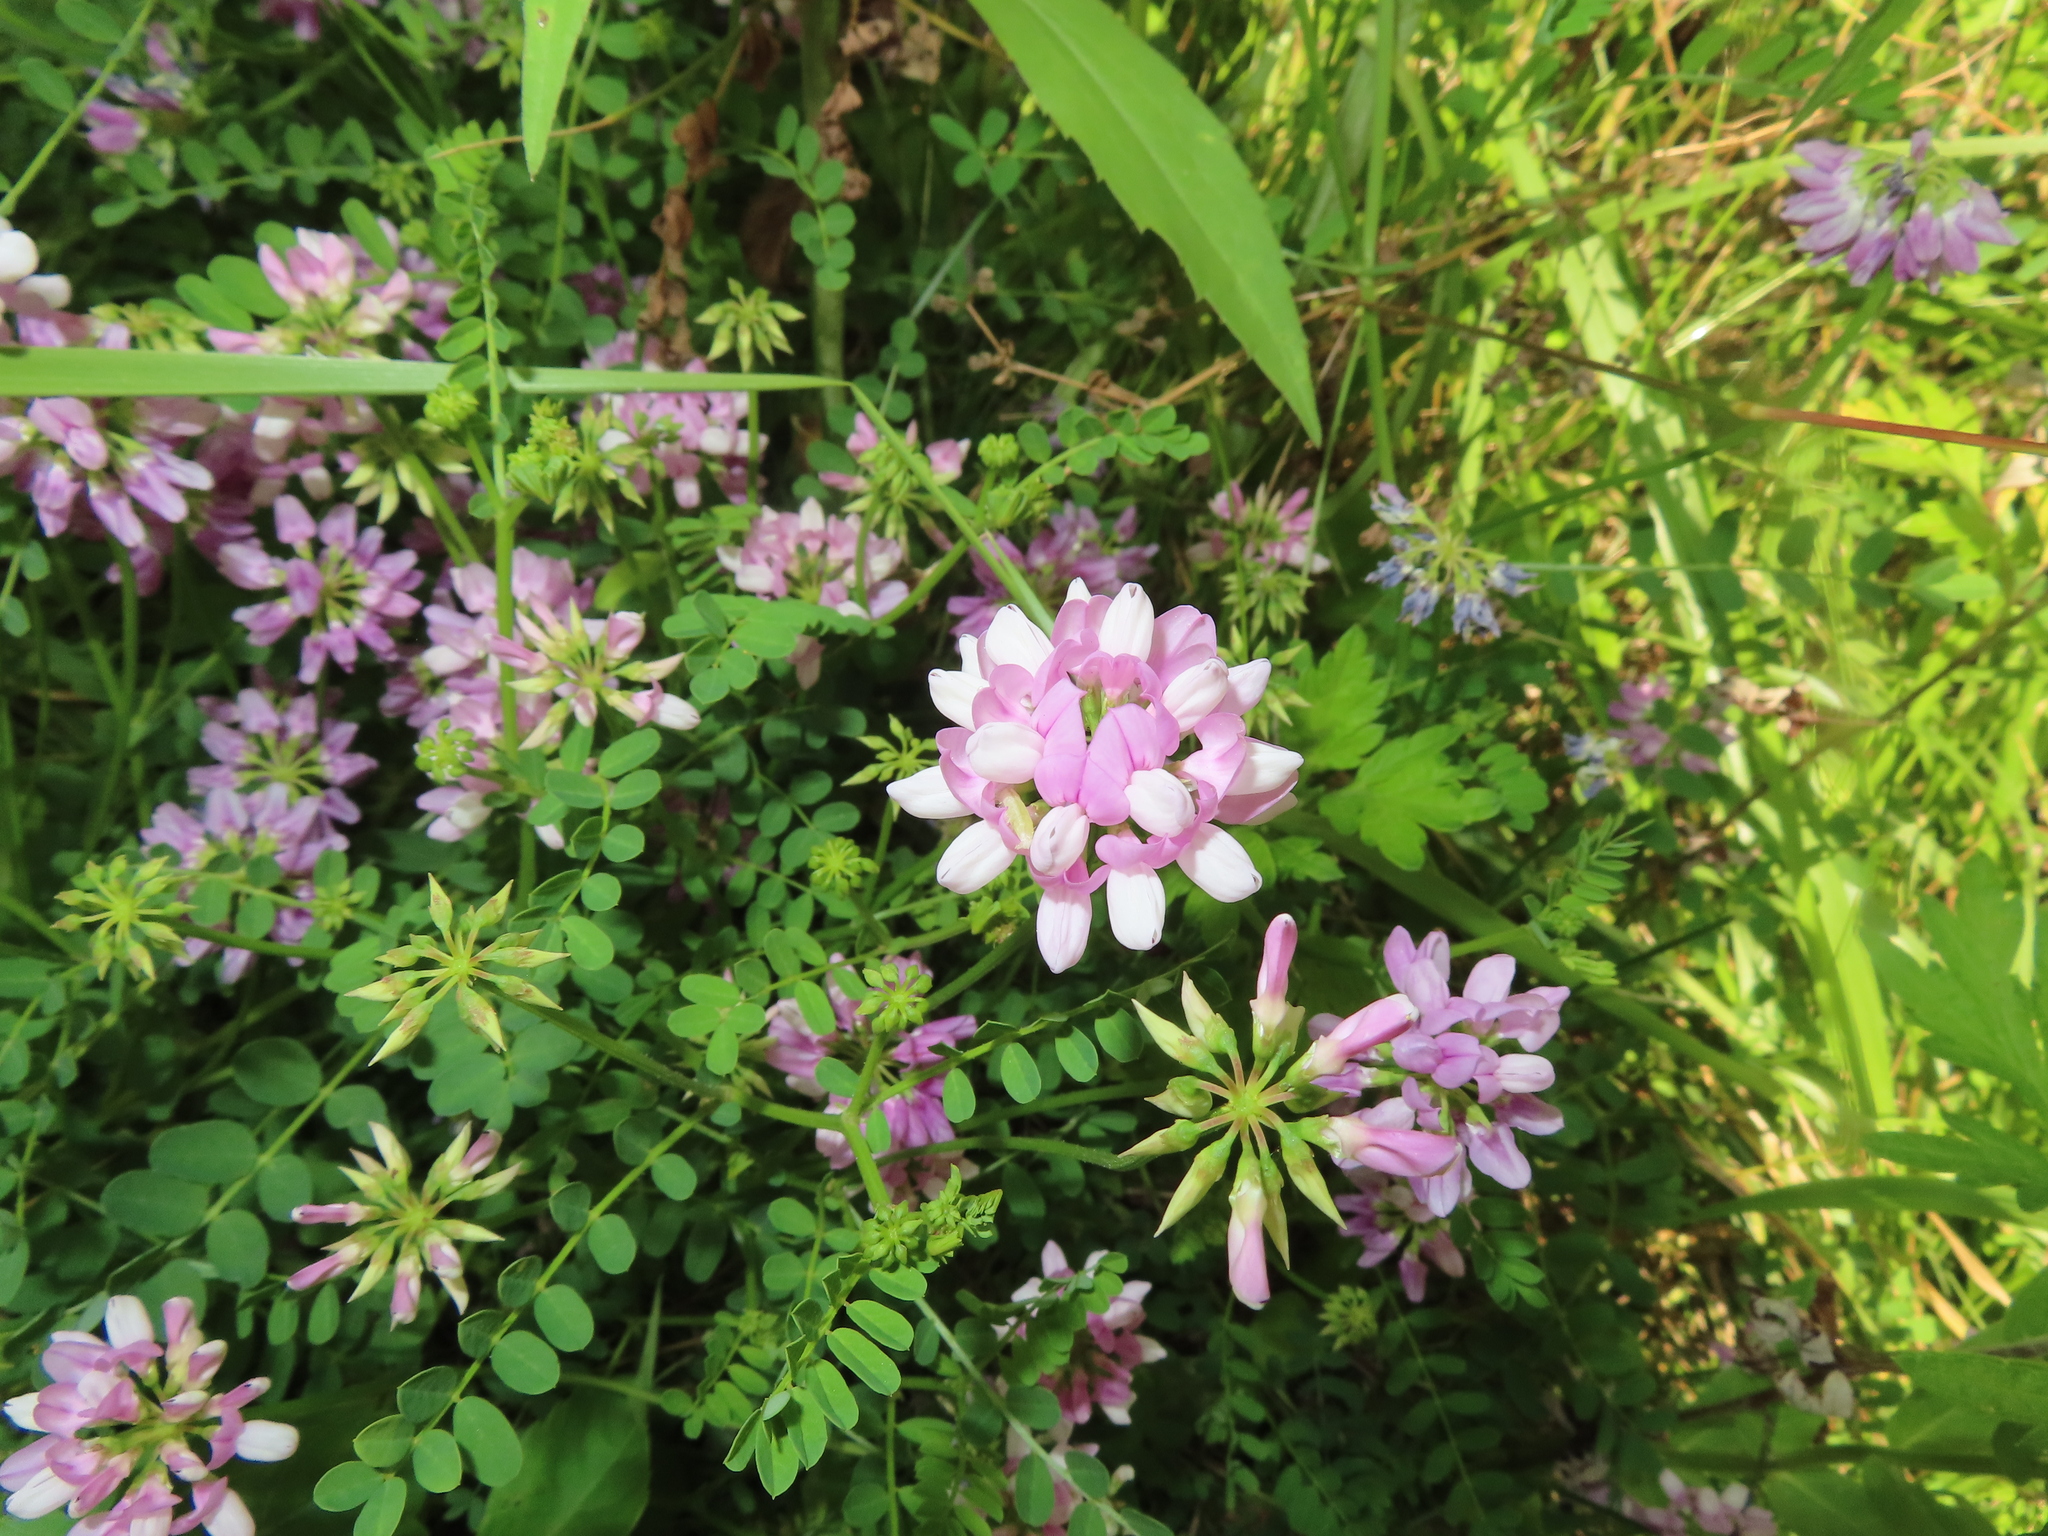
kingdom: Plantae
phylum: Tracheophyta
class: Magnoliopsida
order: Fabales
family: Fabaceae
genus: Coronilla
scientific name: Coronilla varia
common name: Crownvetch
